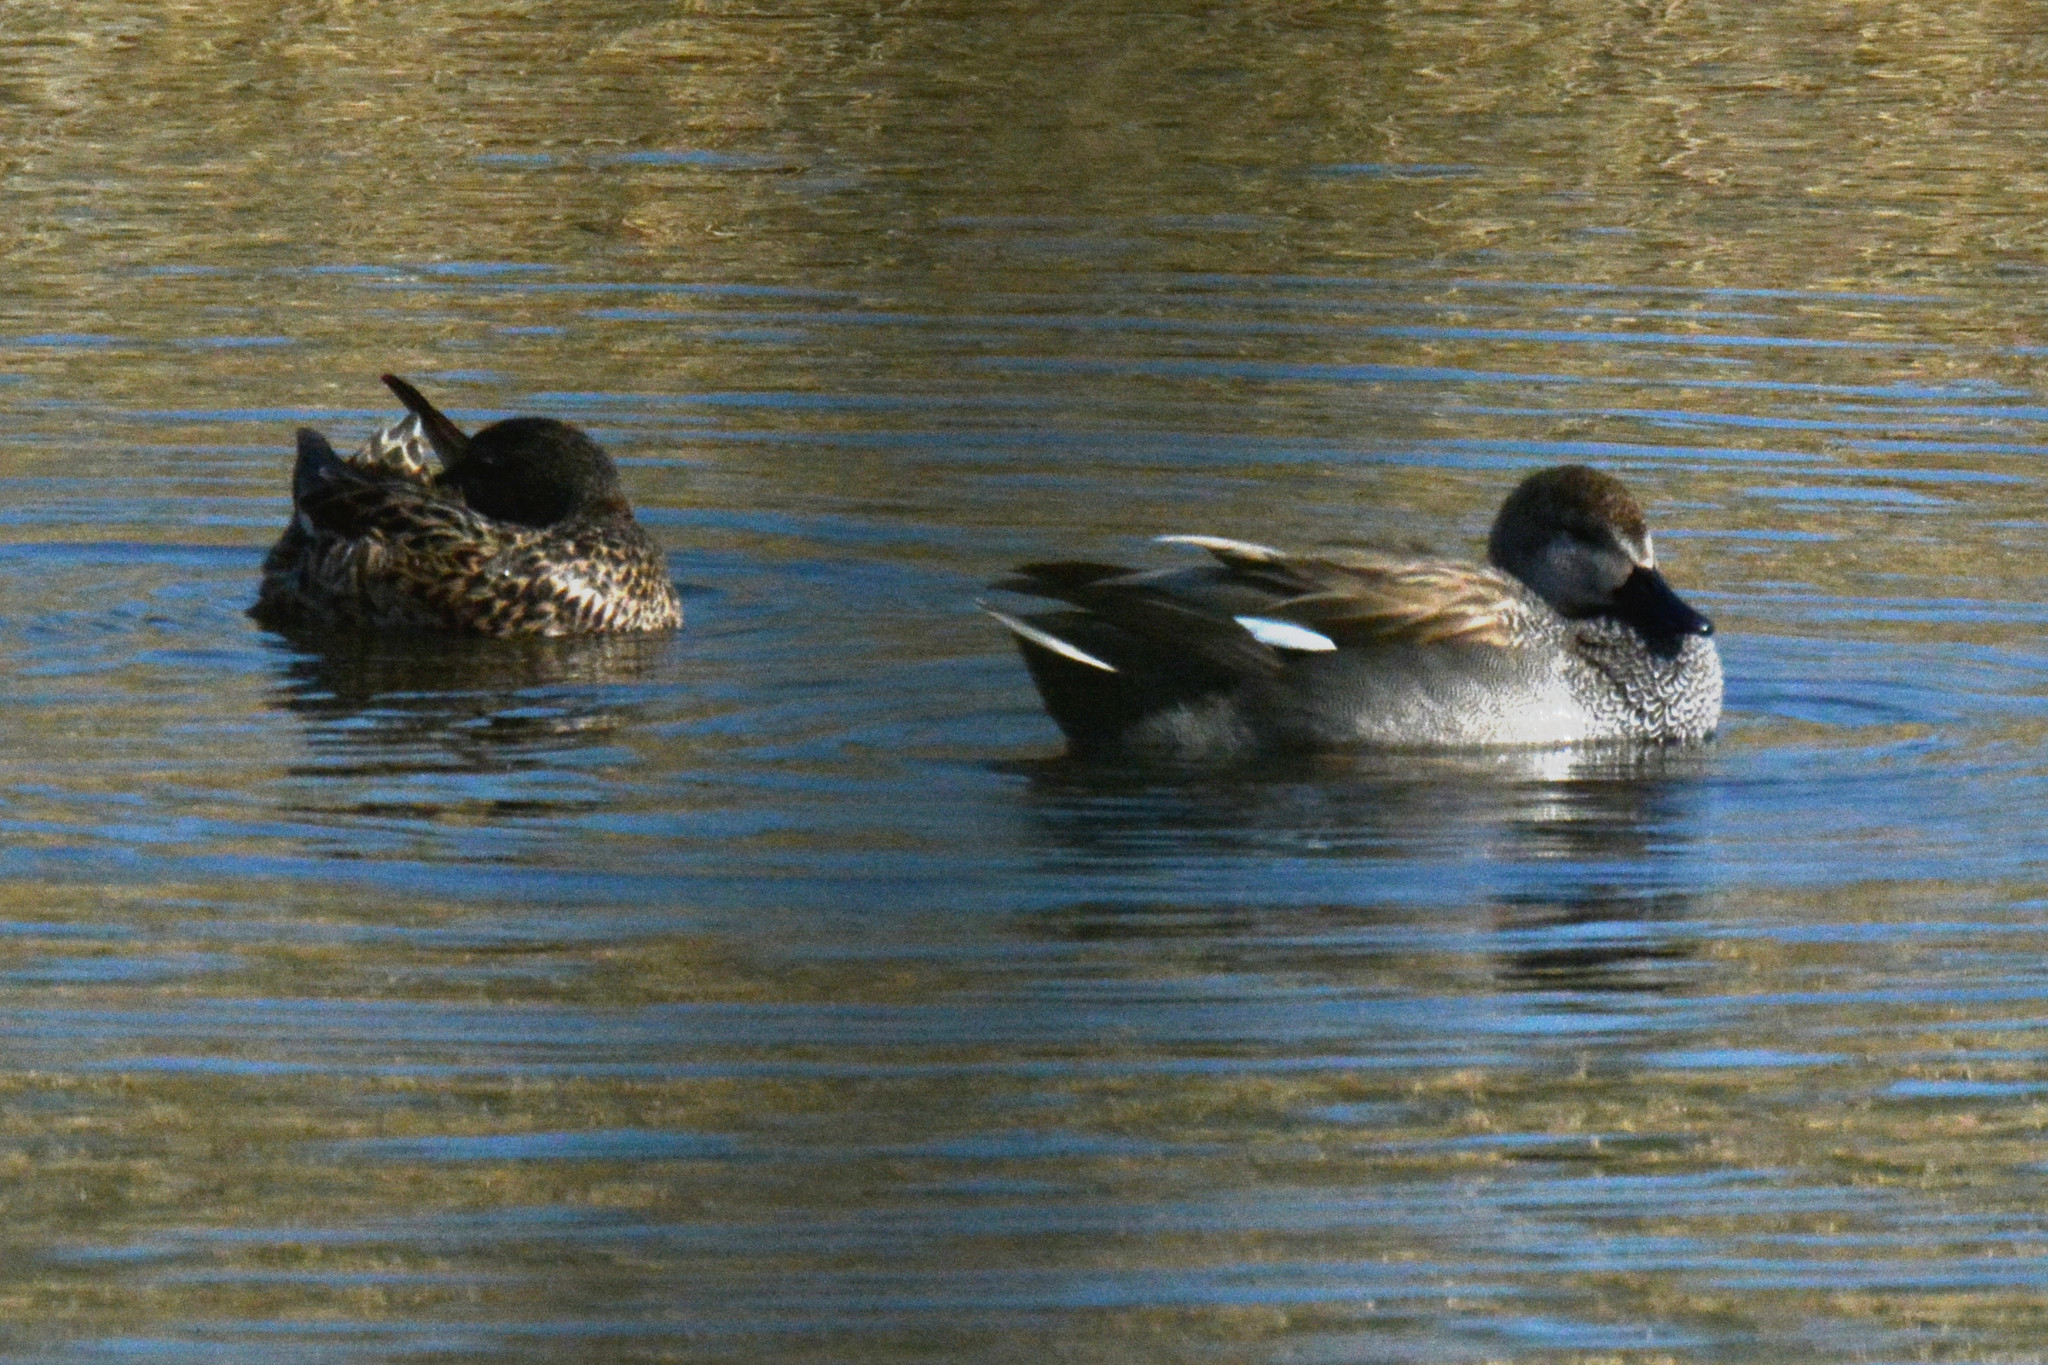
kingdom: Animalia
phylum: Chordata
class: Aves
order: Anseriformes
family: Anatidae
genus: Mareca
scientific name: Mareca strepera
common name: Gadwall
